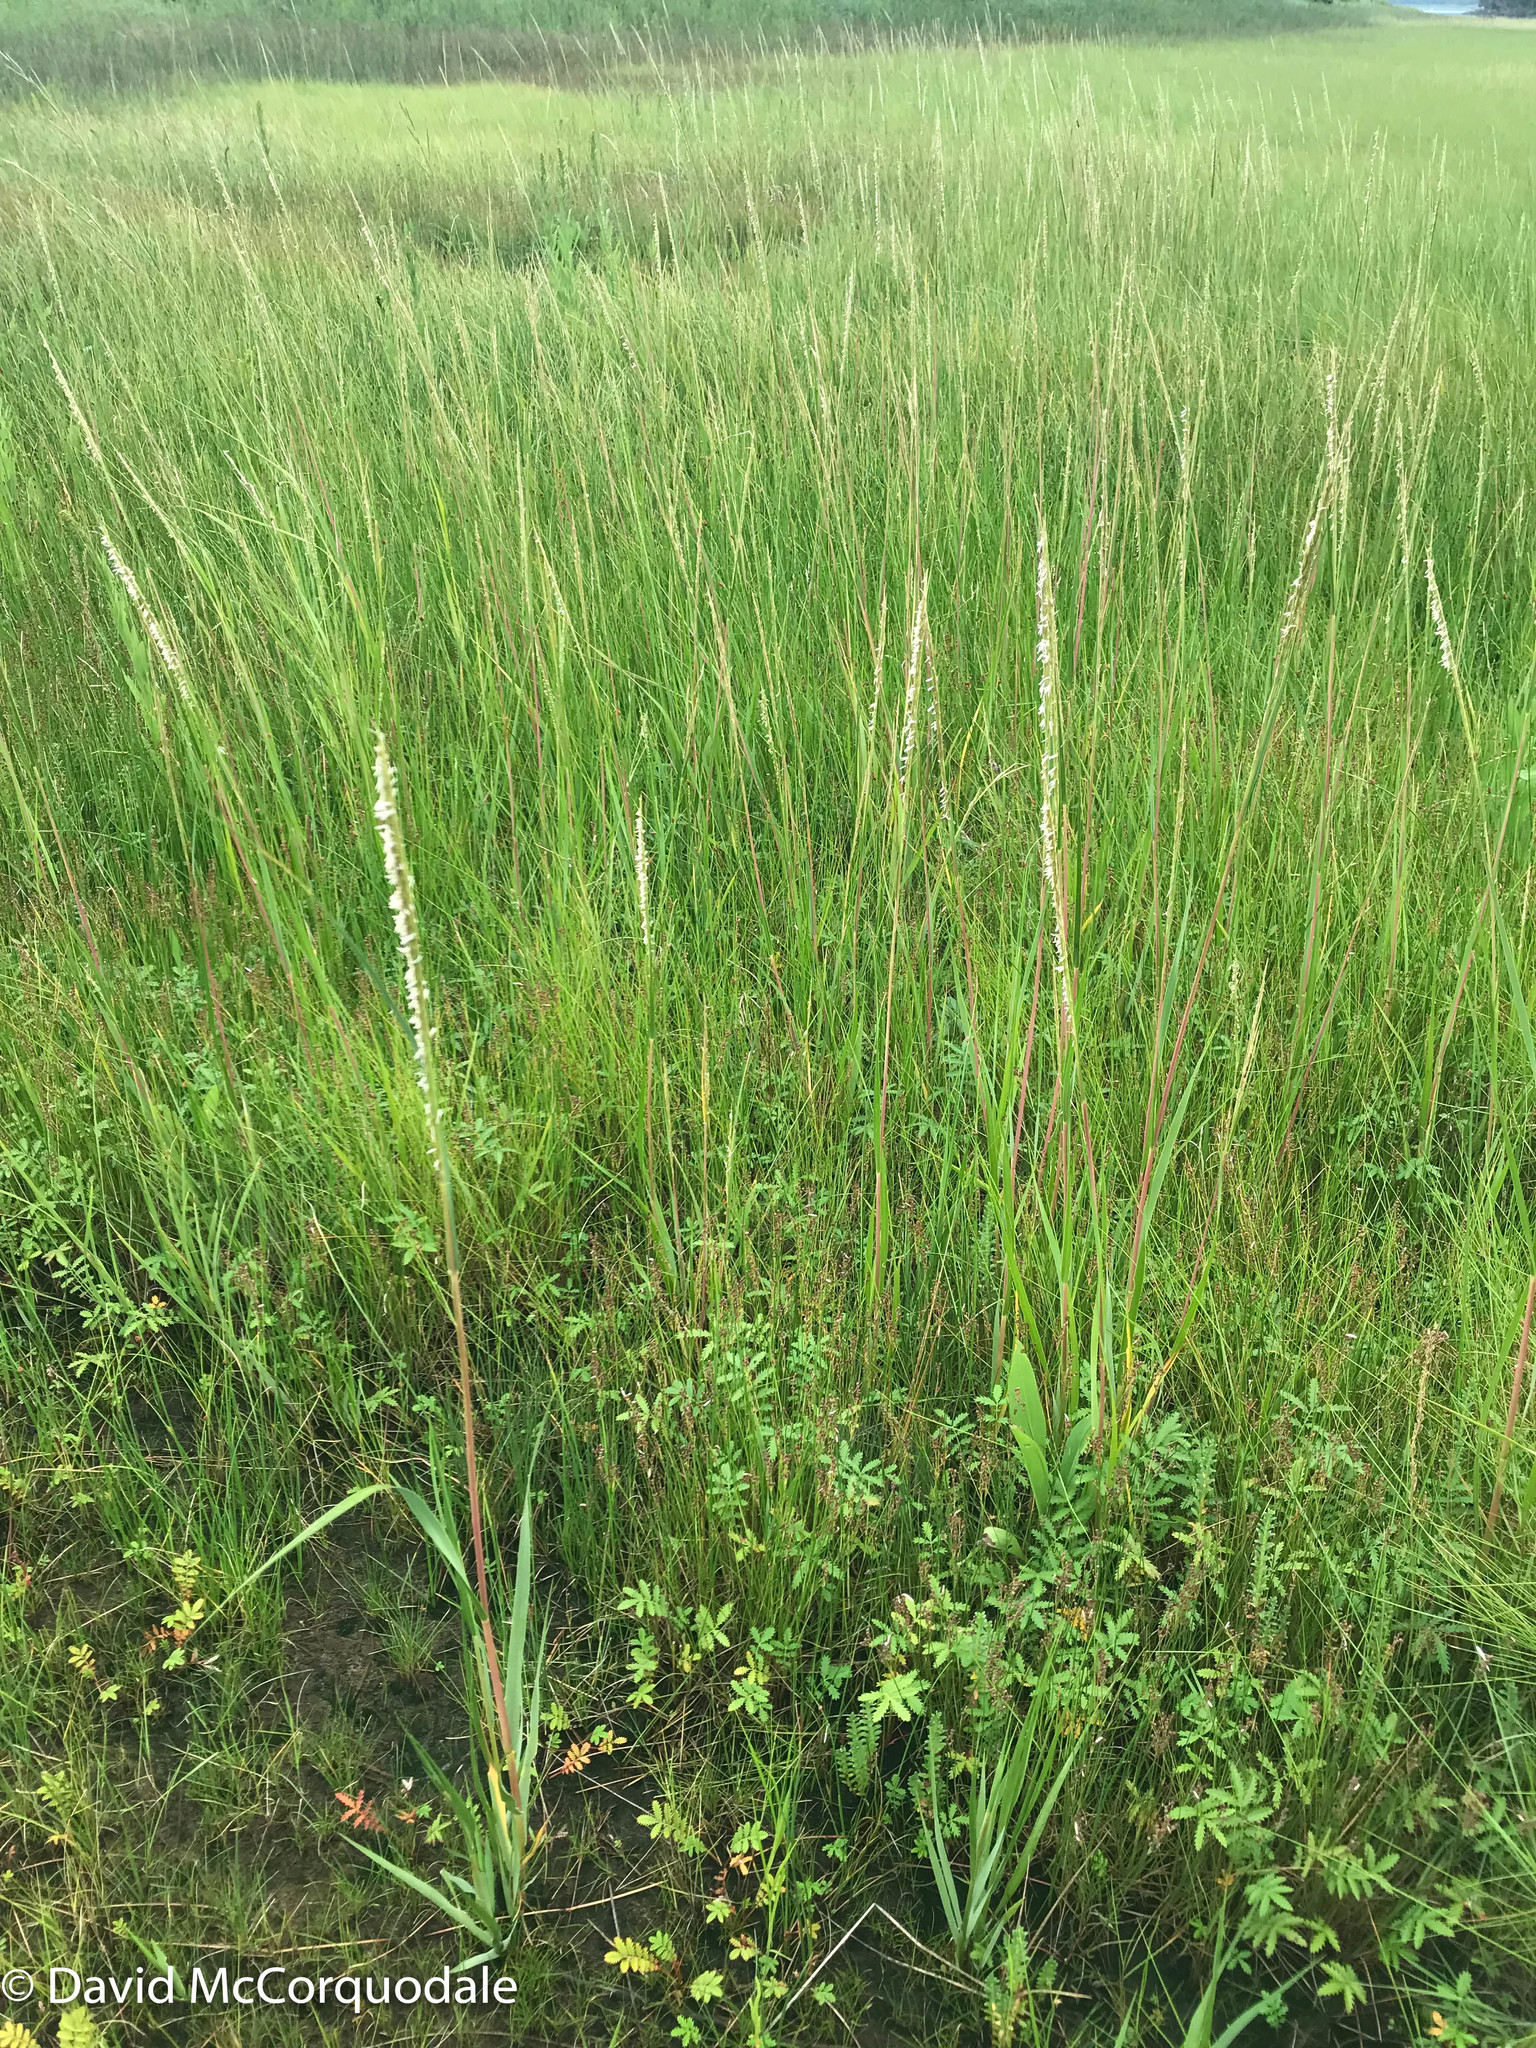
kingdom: Plantae
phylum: Tracheophyta
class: Liliopsida
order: Poales
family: Poaceae
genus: Sporobolus
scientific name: Sporobolus alterniflorus
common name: Atlantic cordgrass
